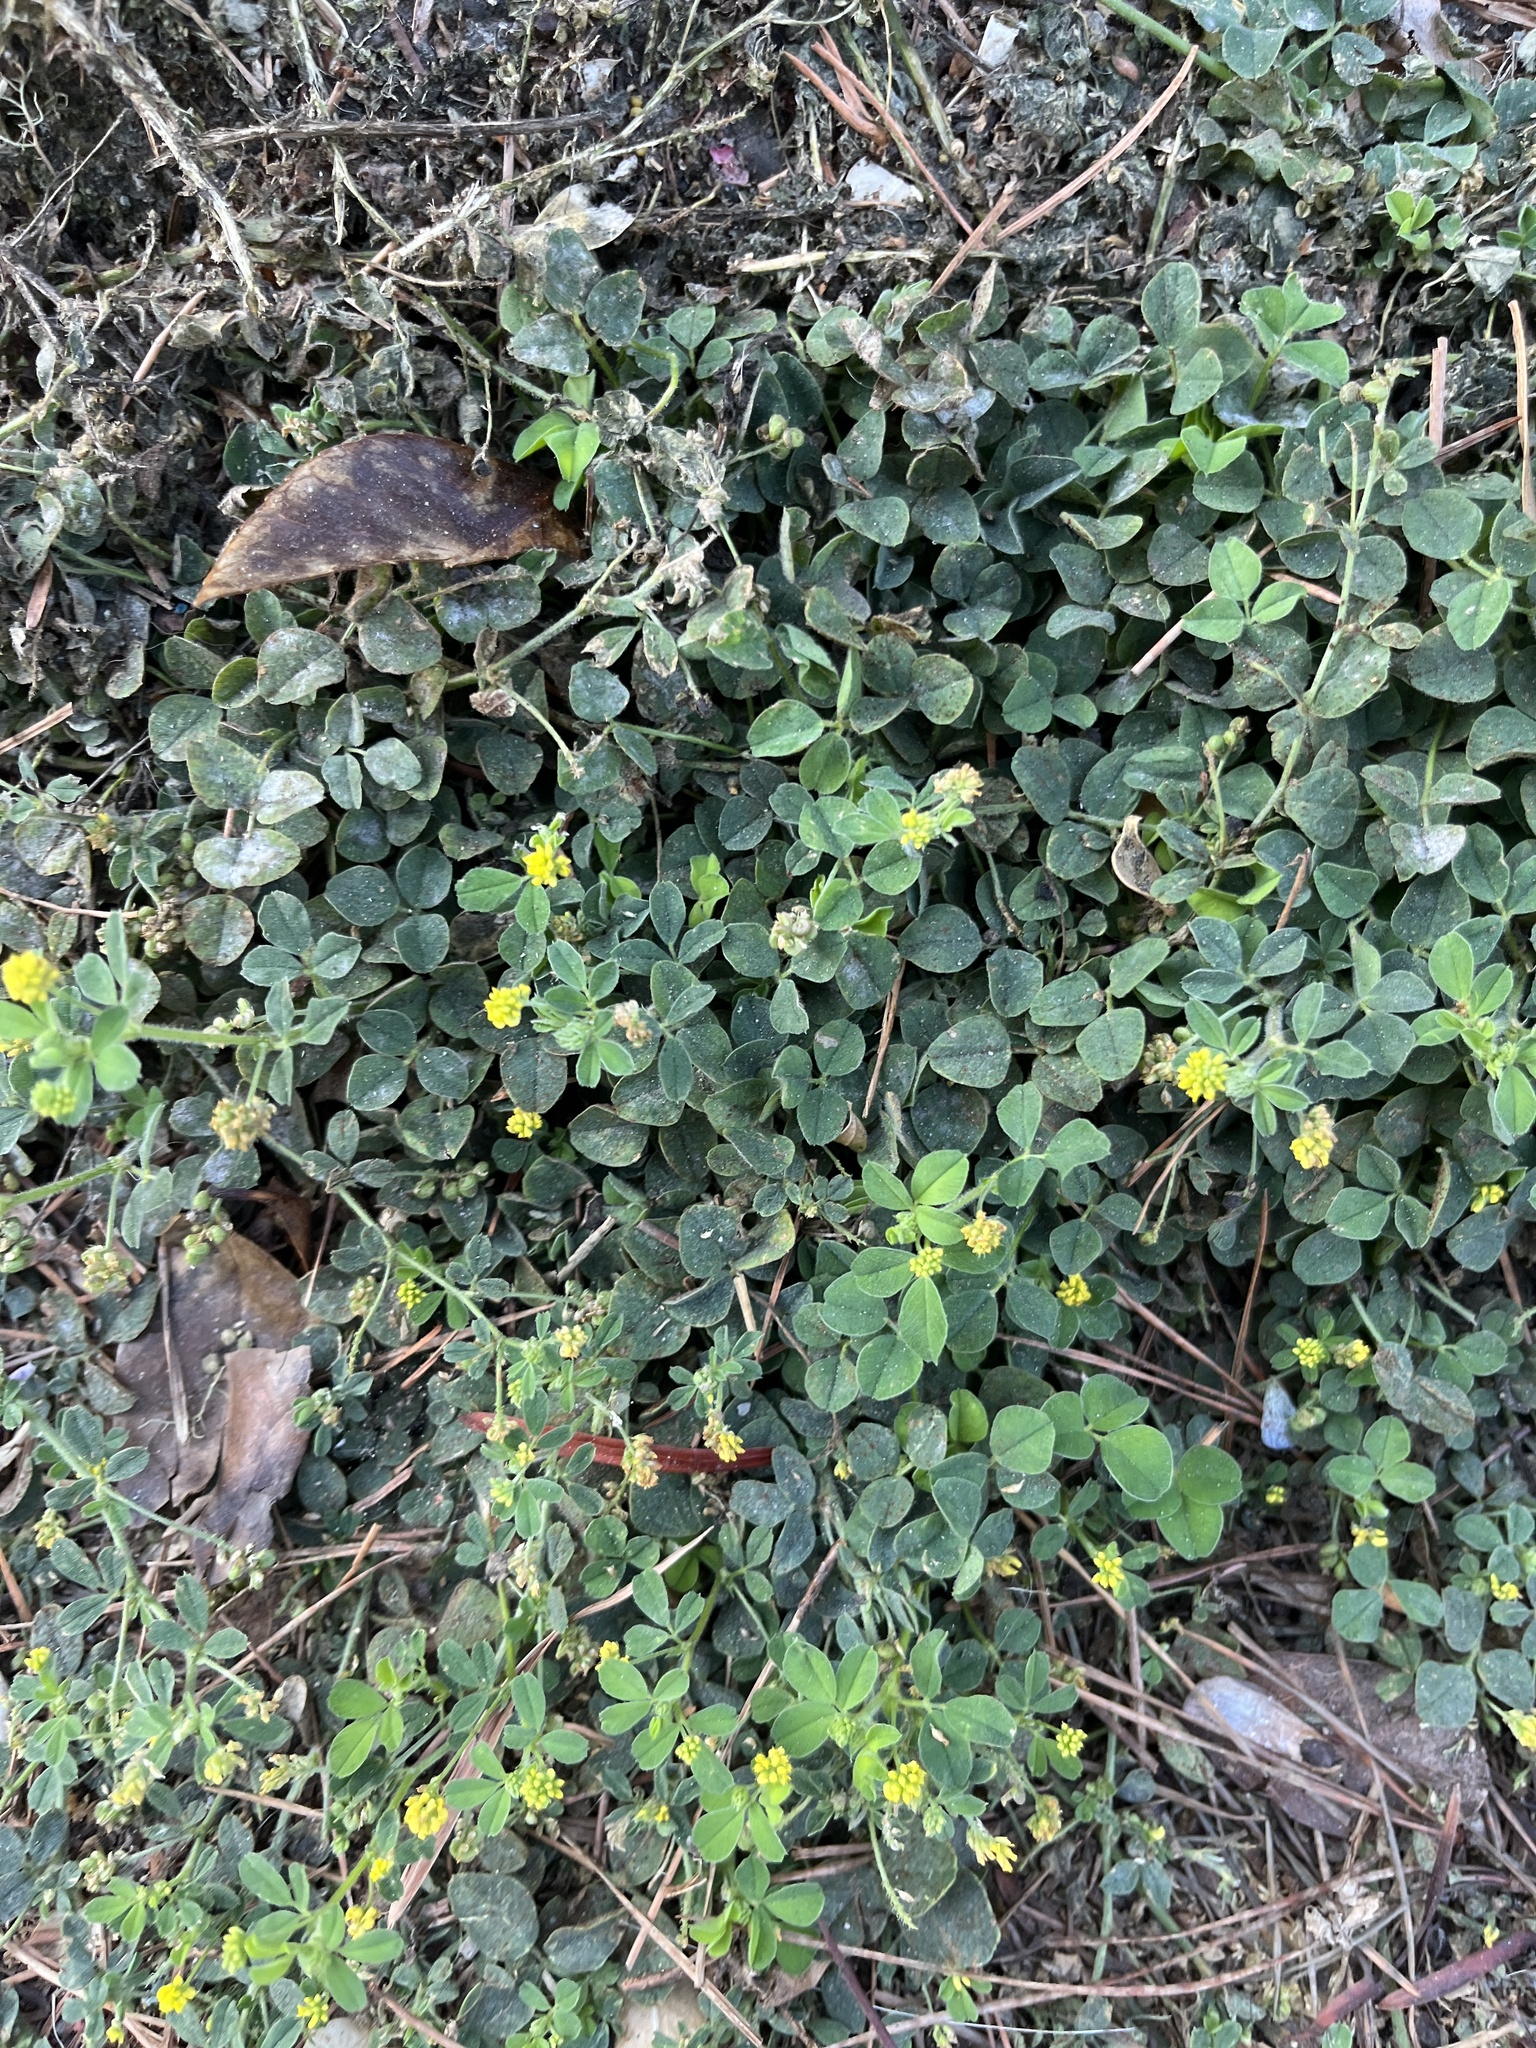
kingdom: Plantae
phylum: Tracheophyta
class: Magnoliopsida
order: Fabales
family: Fabaceae
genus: Medicago
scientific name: Medicago lupulina
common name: Black medick
